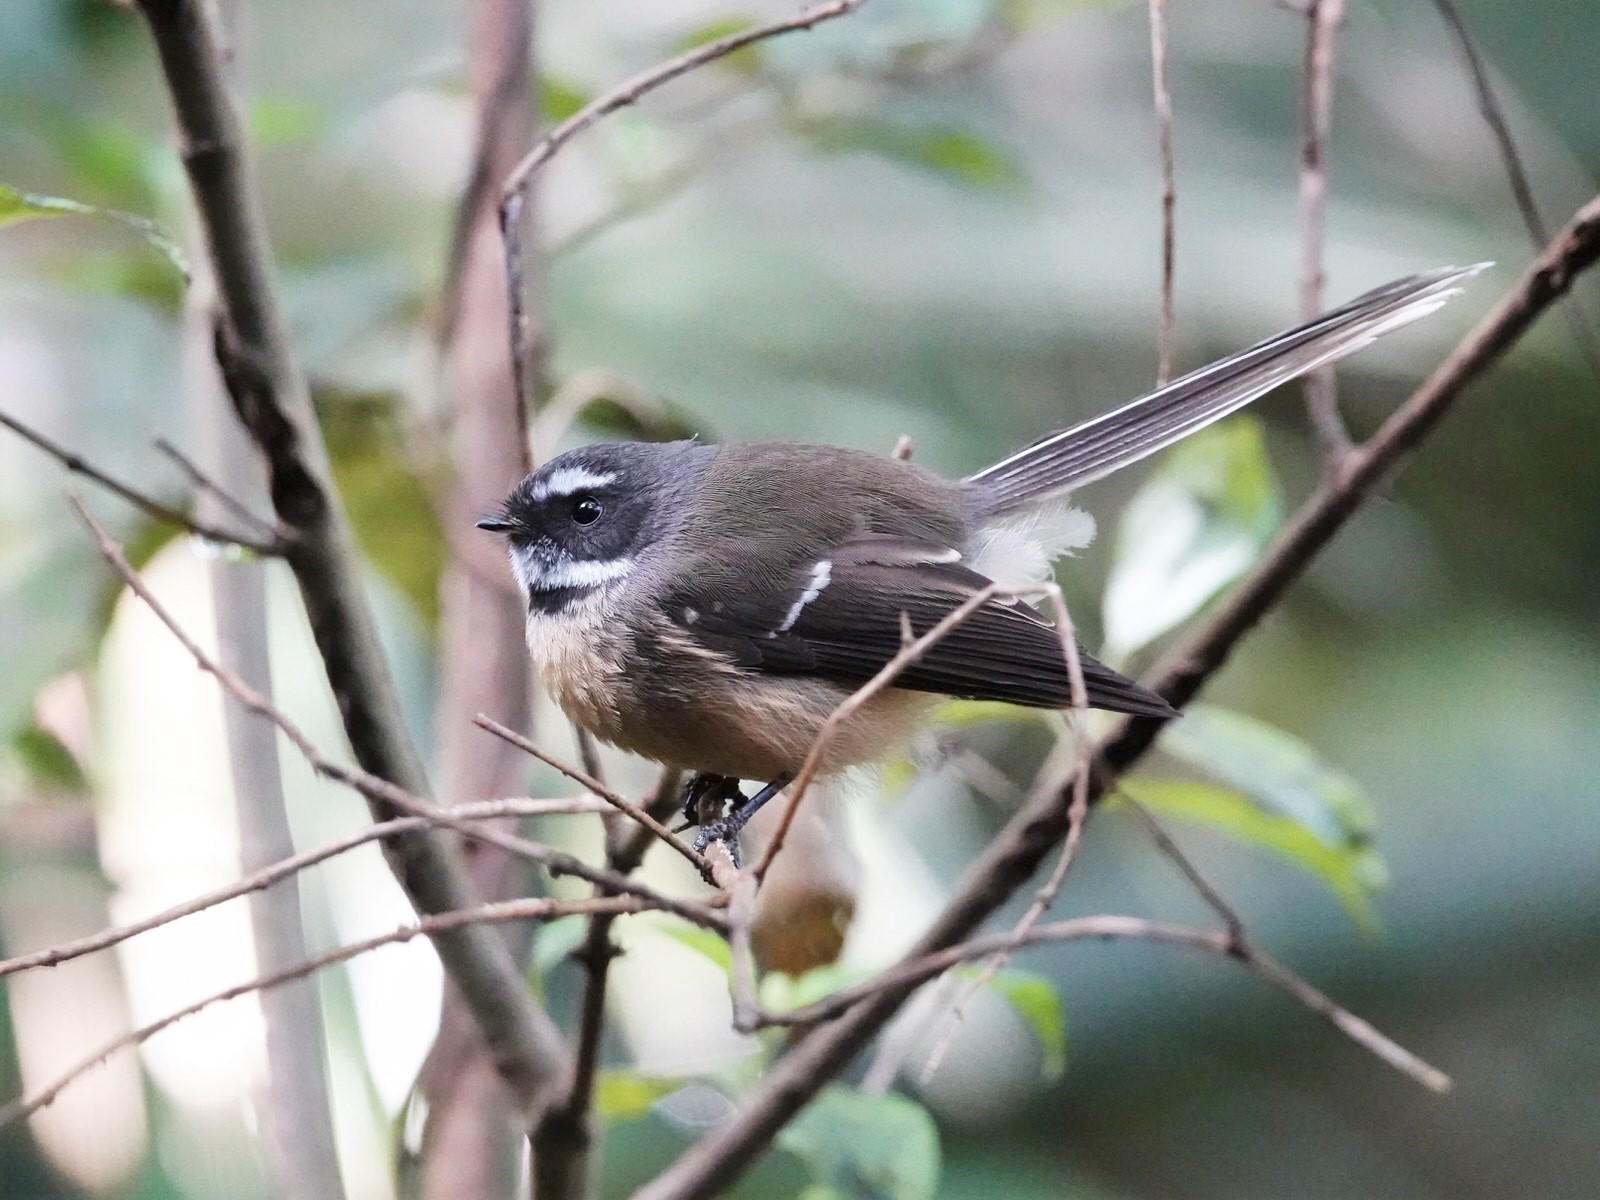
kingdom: Animalia
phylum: Chordata
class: Aves
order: Passeriformes
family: Rhipiduridae
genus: Rhipidura
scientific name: Rhipidura fuliginosa
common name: New zealand fantail
